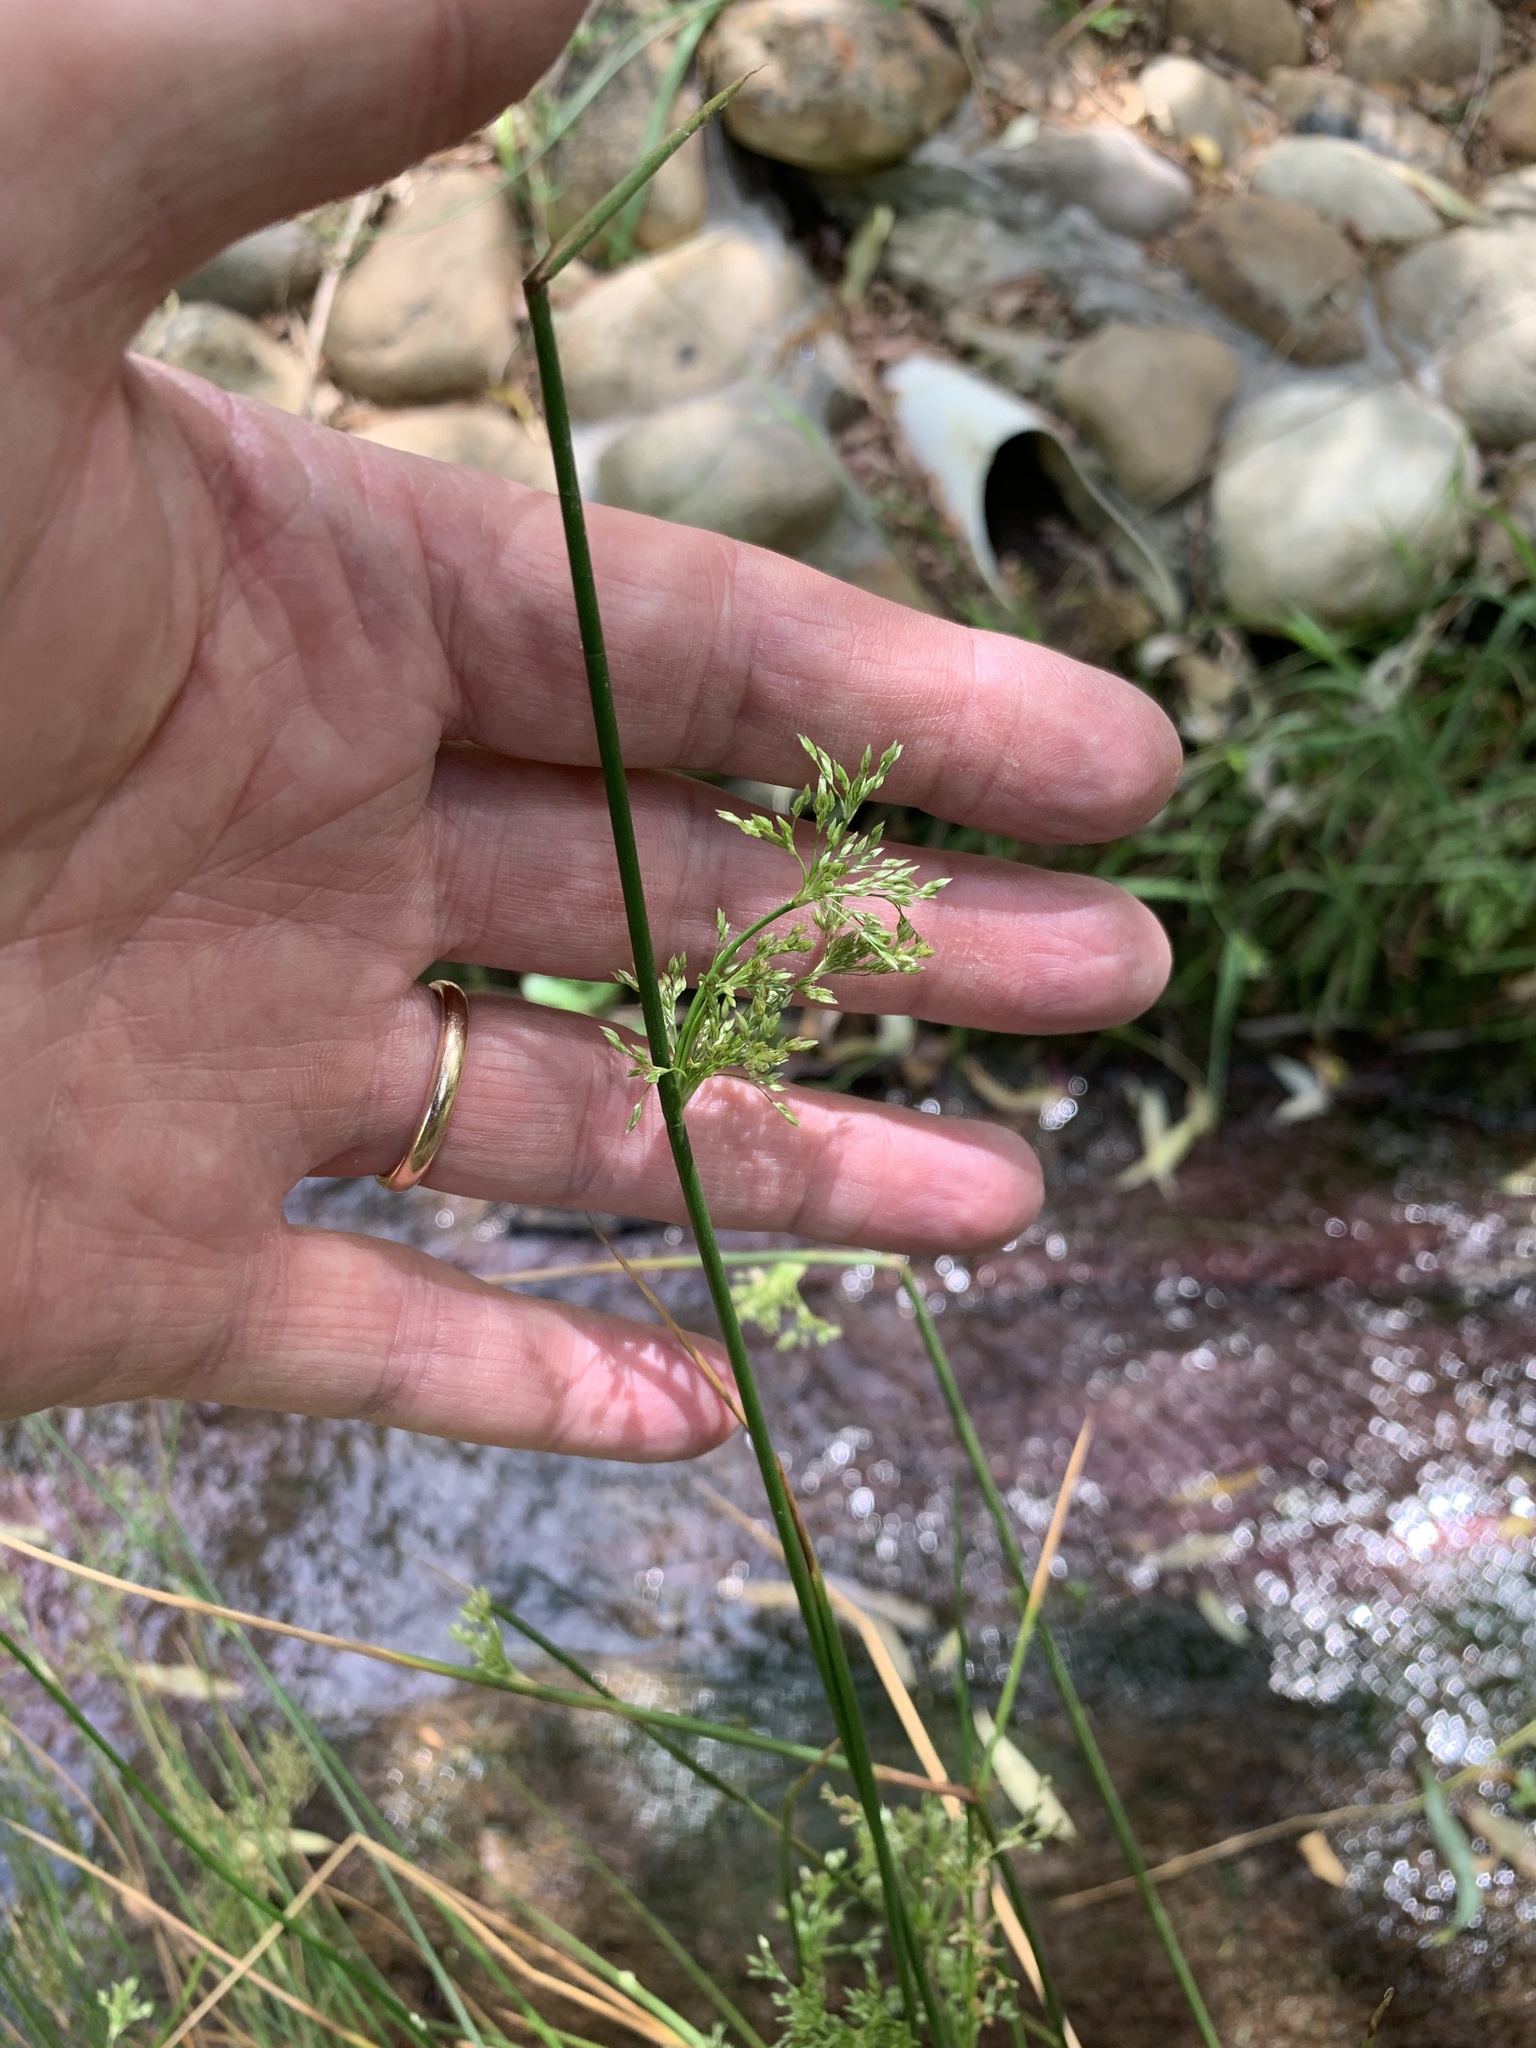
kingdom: Plantae
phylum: Tracheophyta
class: Liliopsida
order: Poales
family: Juncaceae
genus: Juncus
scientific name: Juncus effusus
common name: Soft rush
